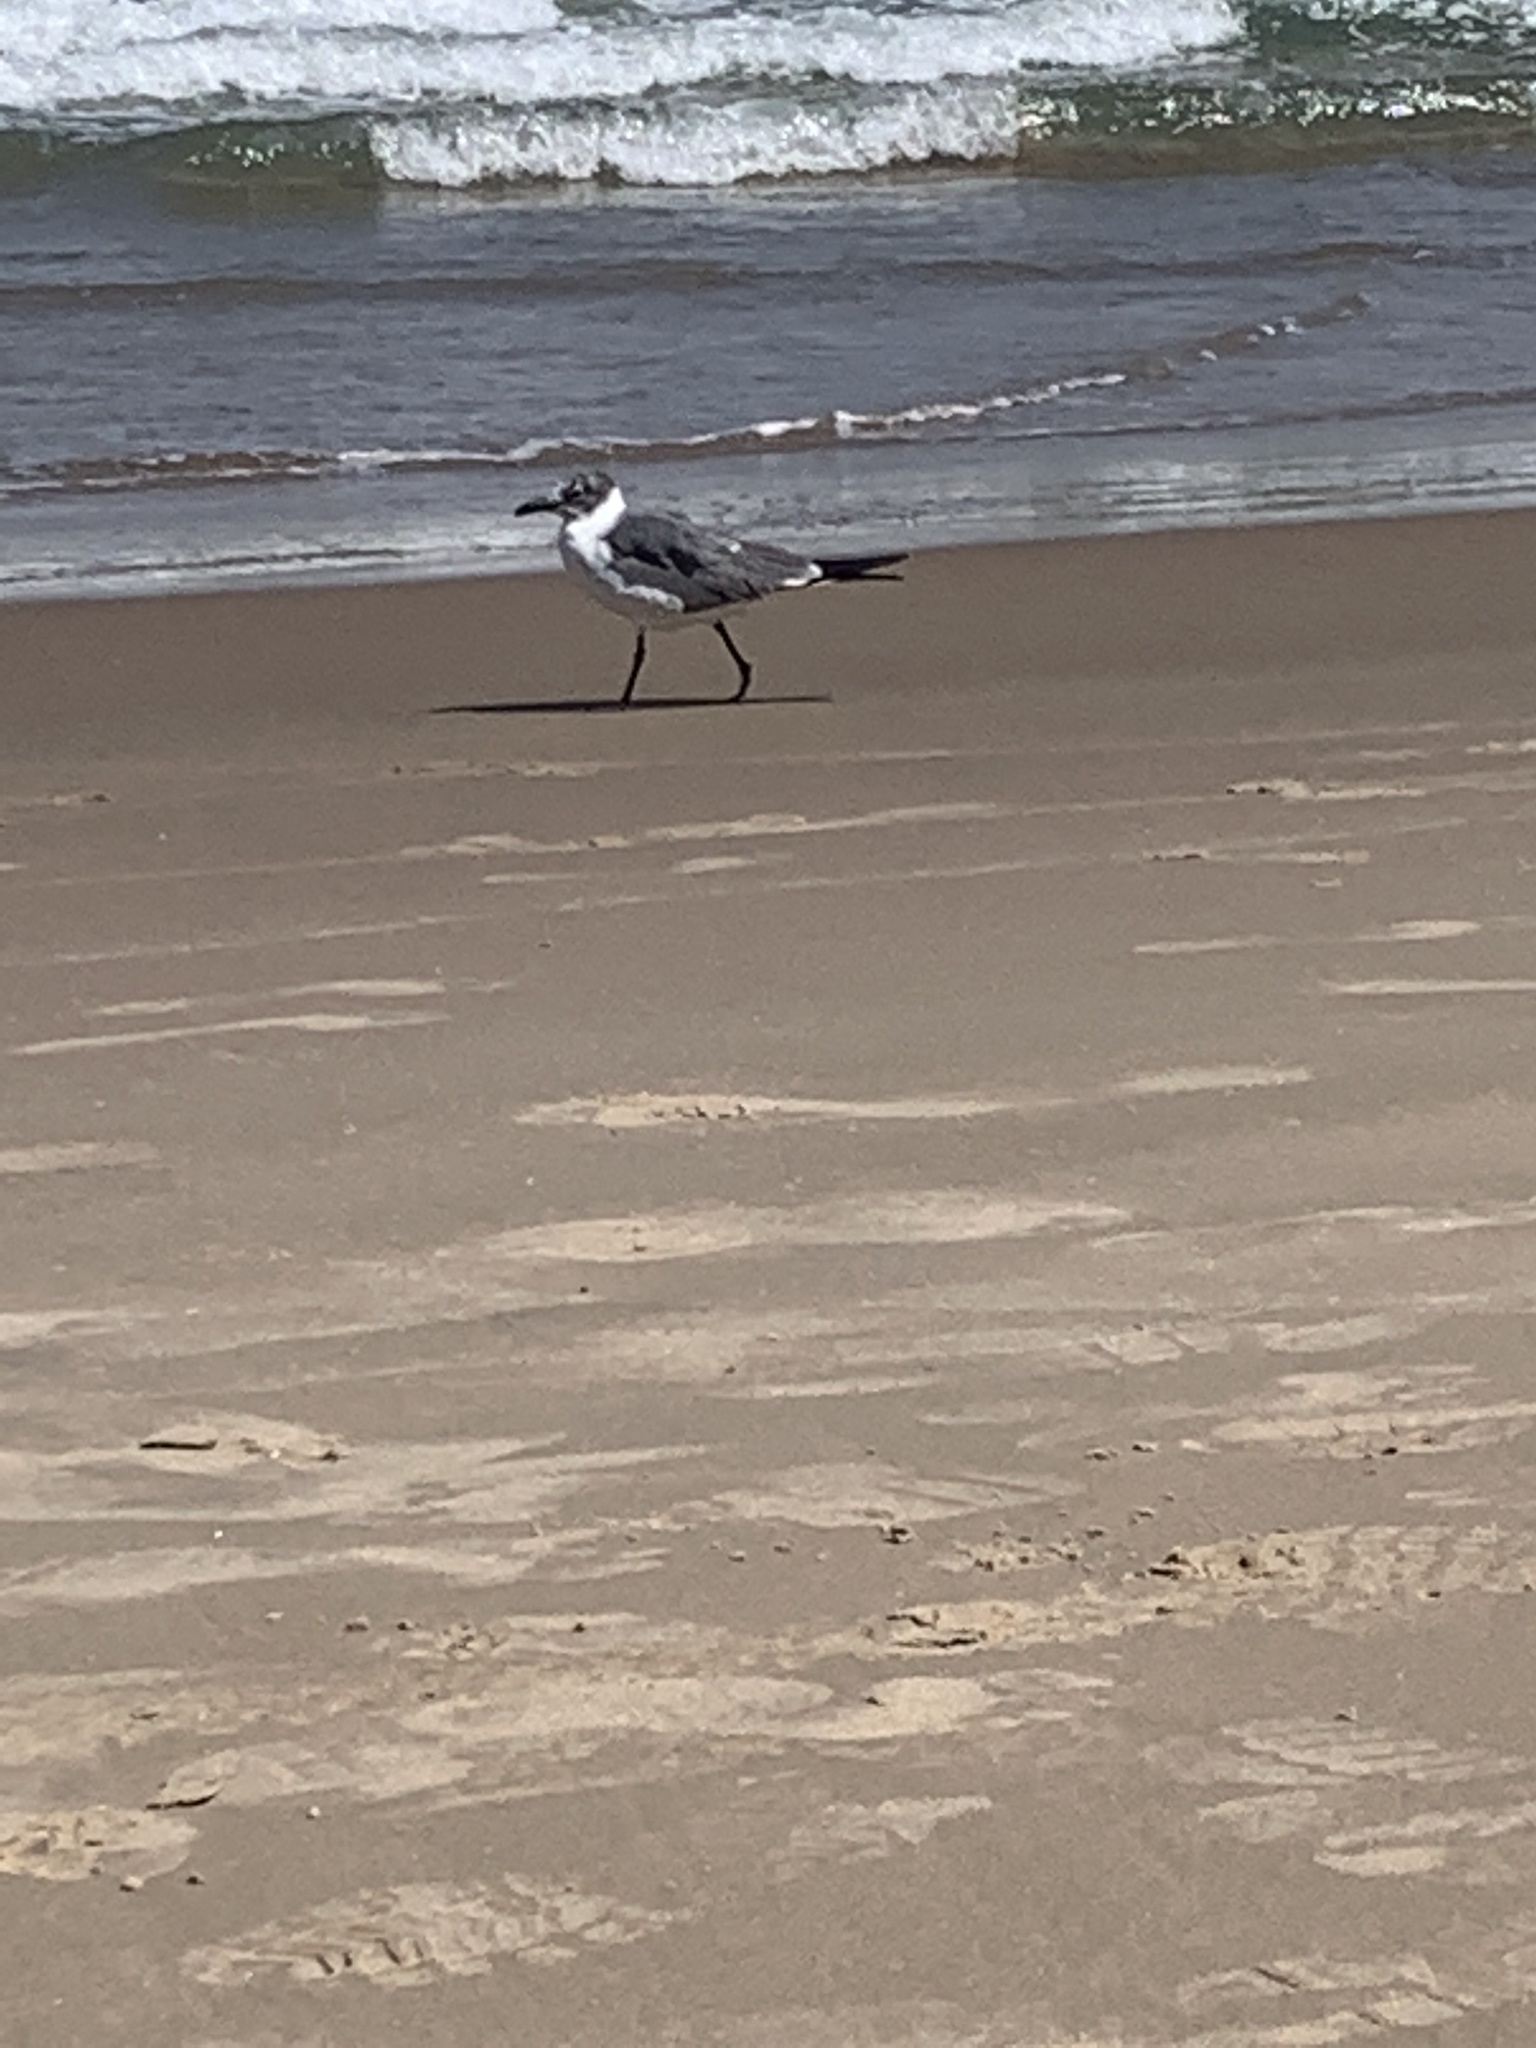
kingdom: Animalia
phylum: Chordata
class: Aves
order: Charadriiformes
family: Laridae
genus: Leucophaeus
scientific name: Leucophaeus atricilla
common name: Laughing gull
